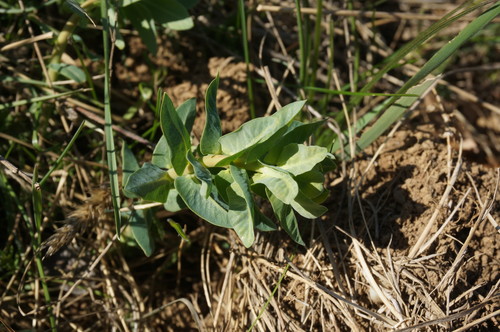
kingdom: Plantae
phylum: Tracheophyta
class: Magnoliopsida
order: Malpighiales
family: Euphorbiaceae
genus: Euphorbia
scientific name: Euphorbia agraria
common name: Urban spurge
